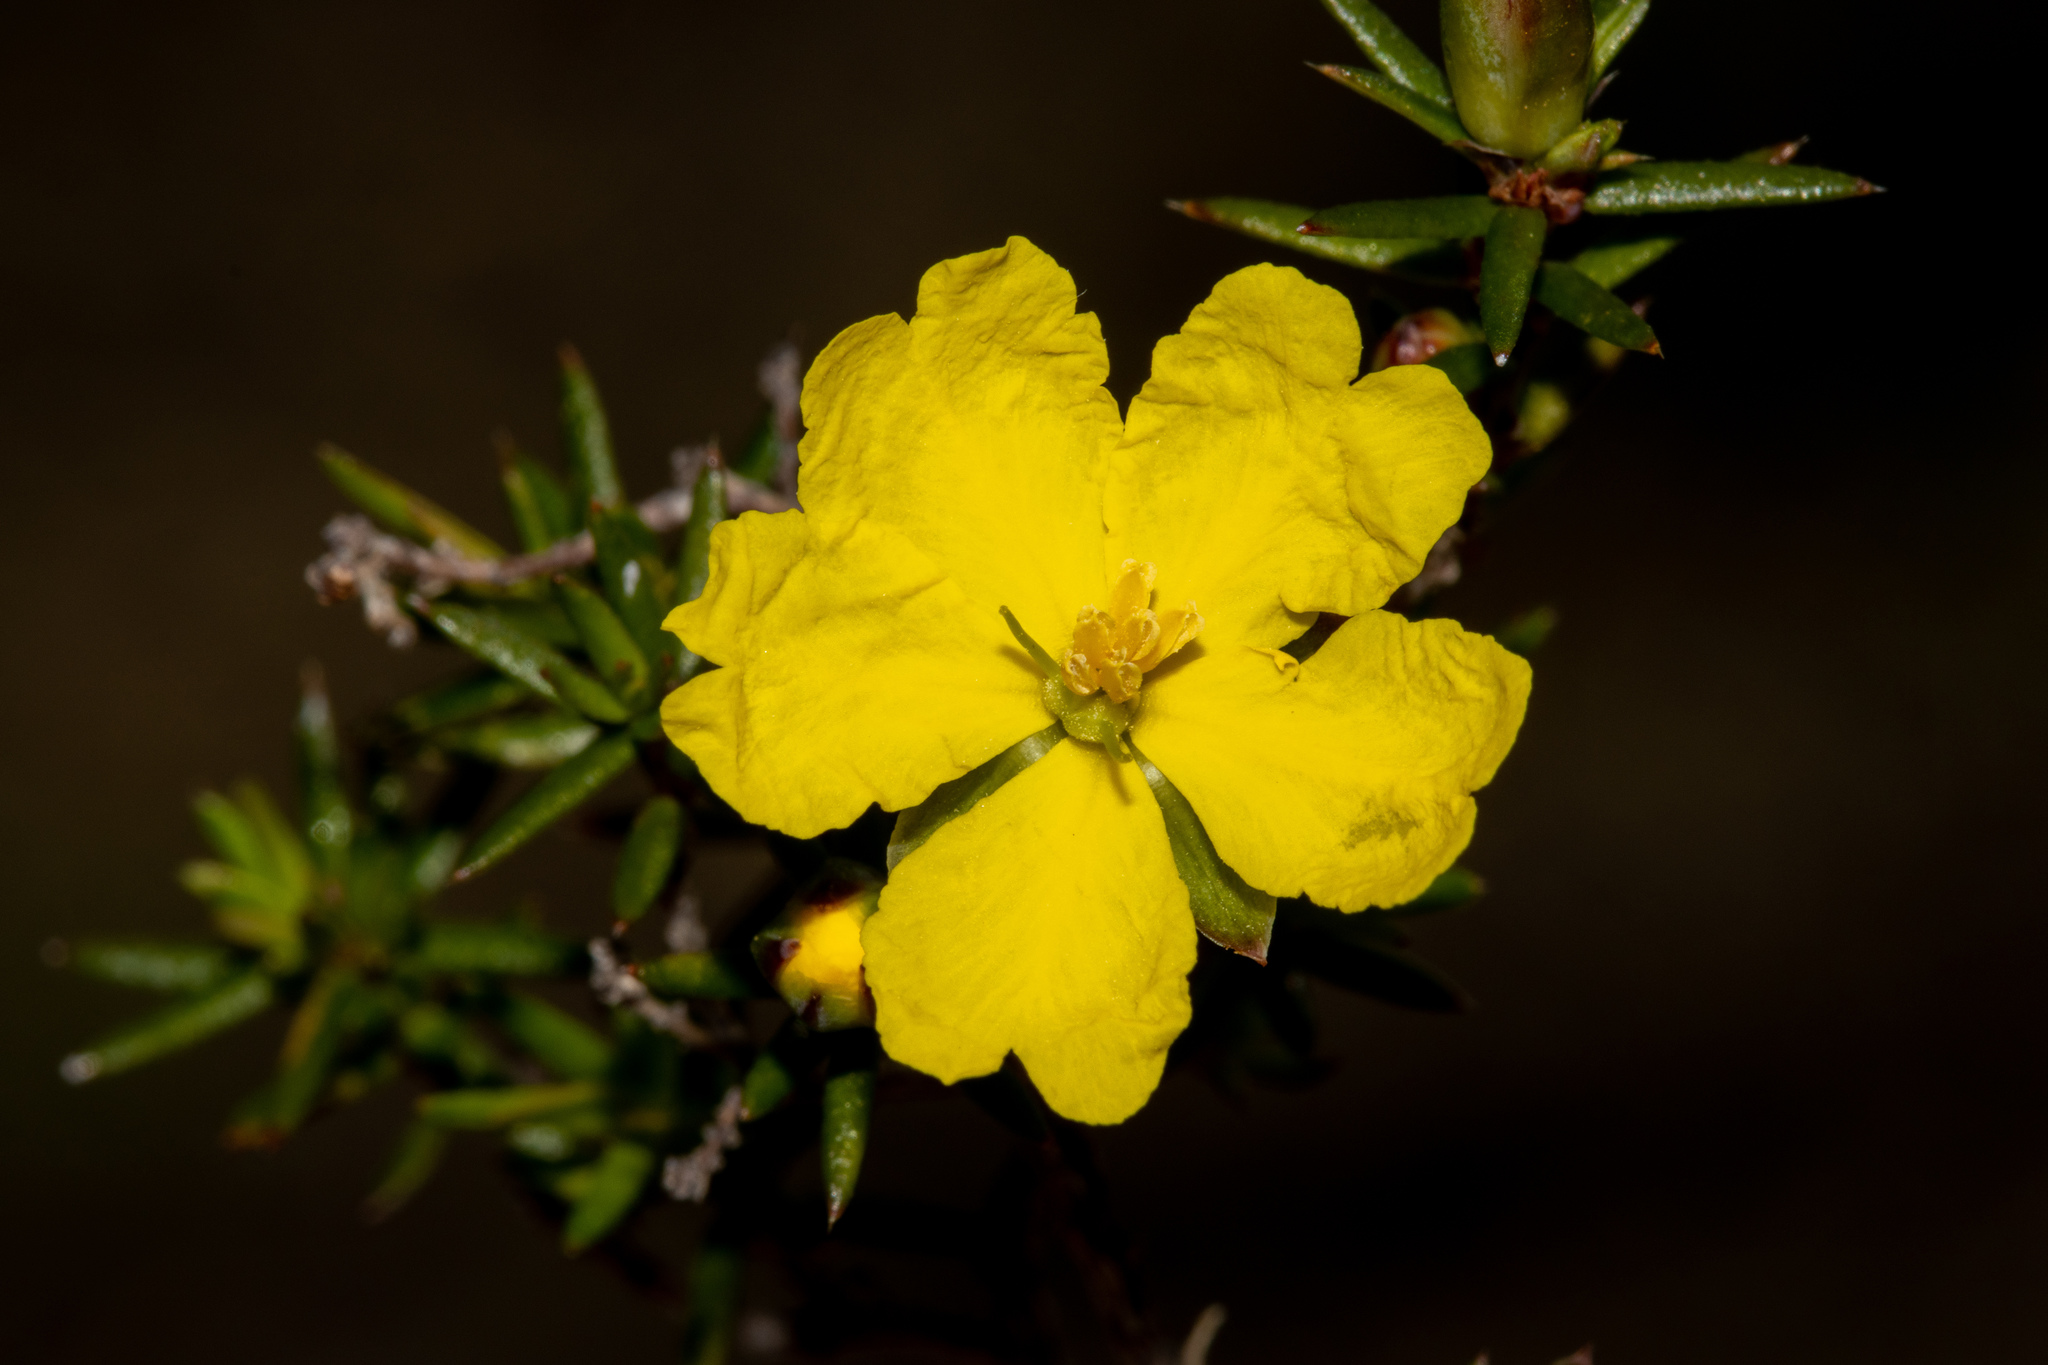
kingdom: Plantae
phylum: Tracheophyta
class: Magnoliopsida
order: Dilleniales
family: Dilleniaceae
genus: Hibbertia
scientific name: Hibbertia exutiacies
